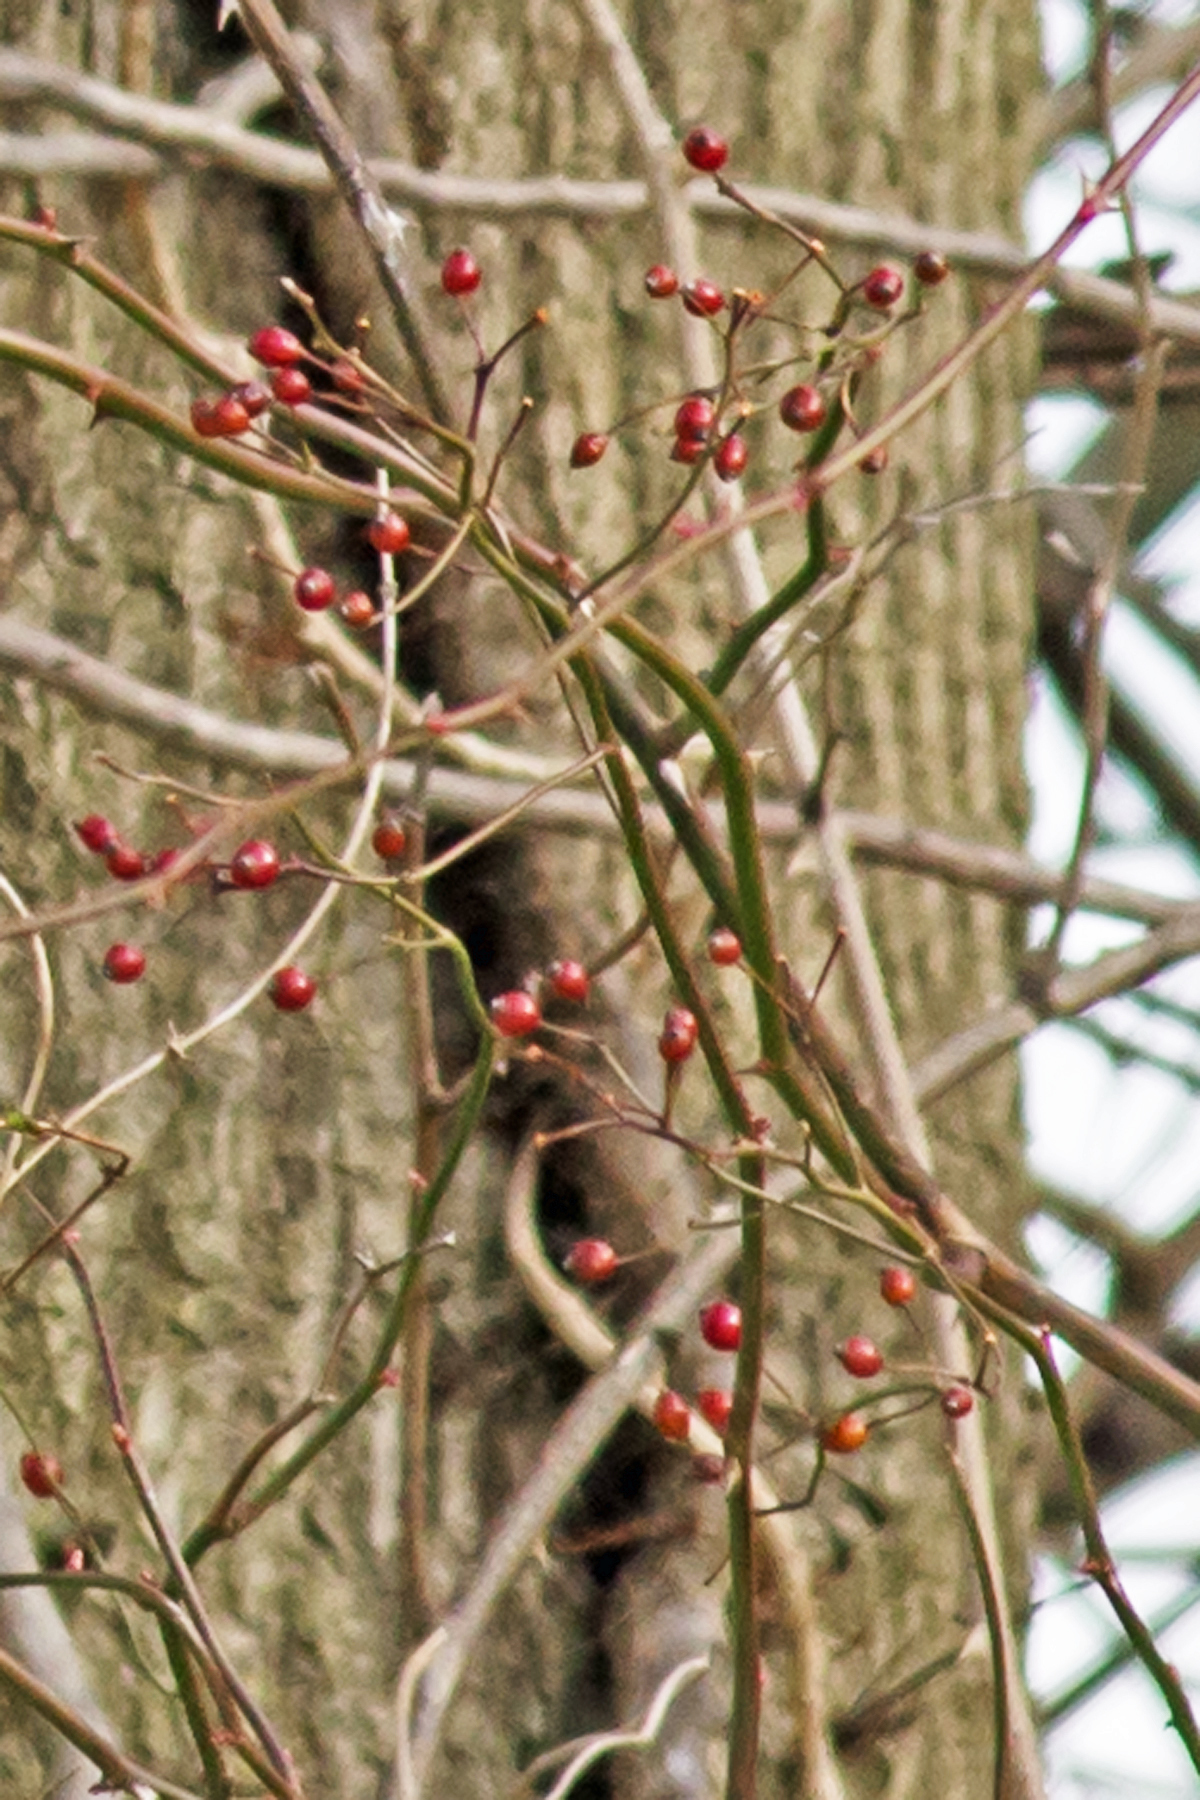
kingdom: Plantae
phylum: Tracheophyta
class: Magnoliopsida
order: Rosales
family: Rosaceae
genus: Rosa
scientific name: Rosa multiflora
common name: Multiflora rose
